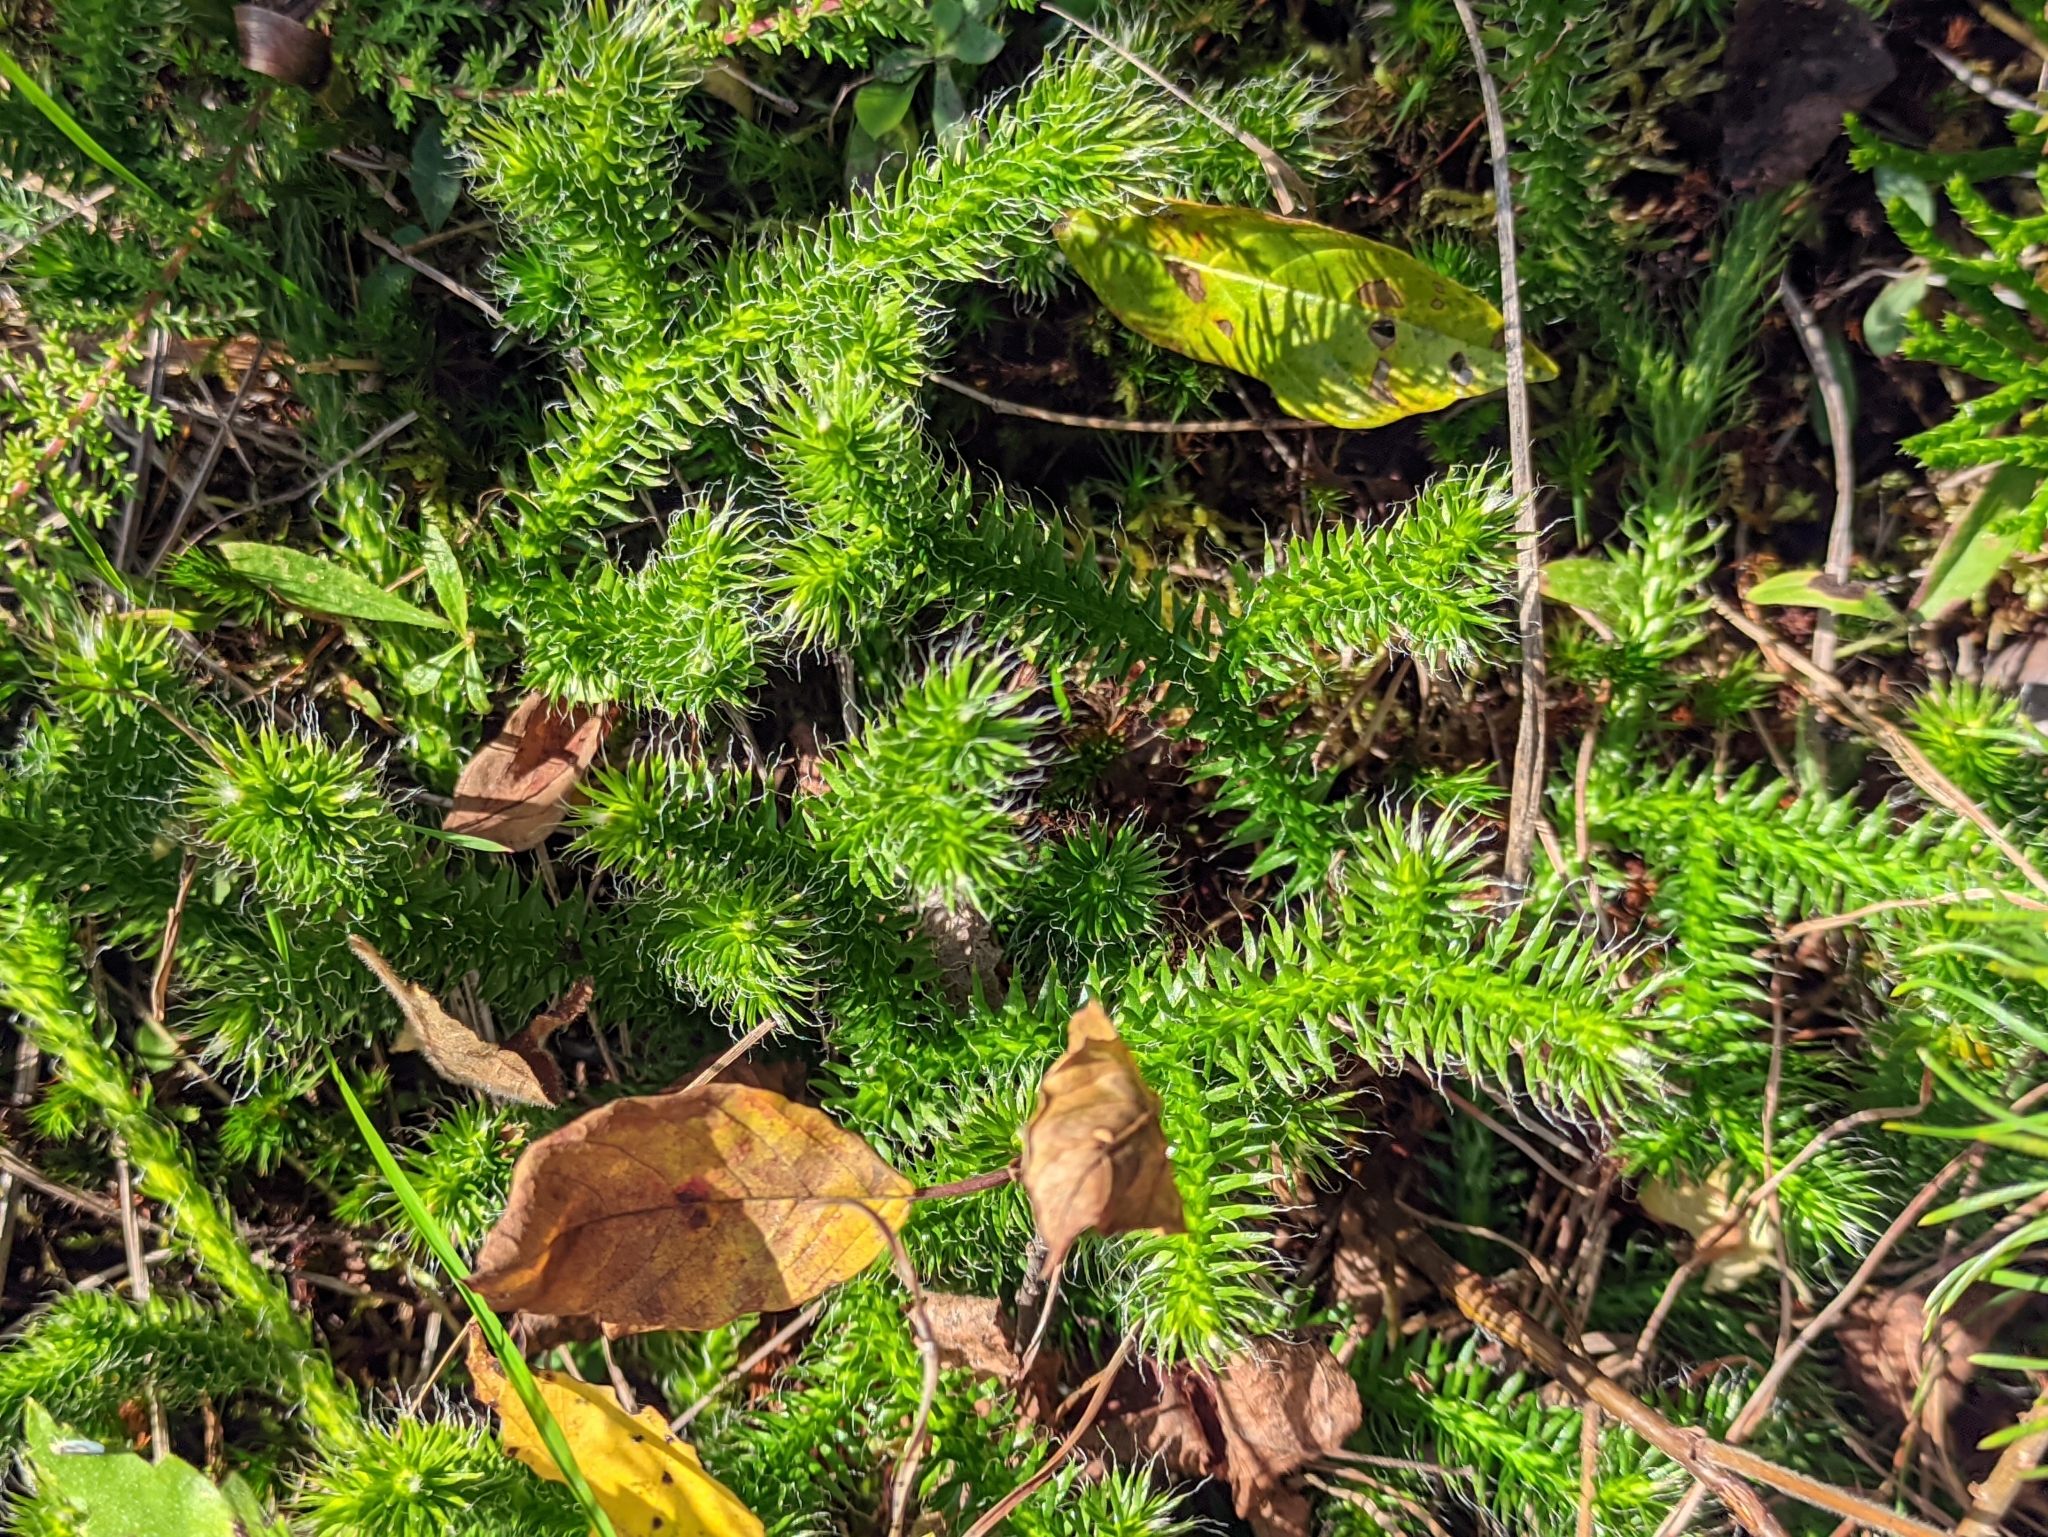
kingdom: Plantae
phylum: Tracheophyta
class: Lycopodiopsida
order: Lycopodiales
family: Lycopodiaceae
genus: Lycopodium
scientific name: Lycopodium clavatum
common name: Stag's-horn clubmoss
